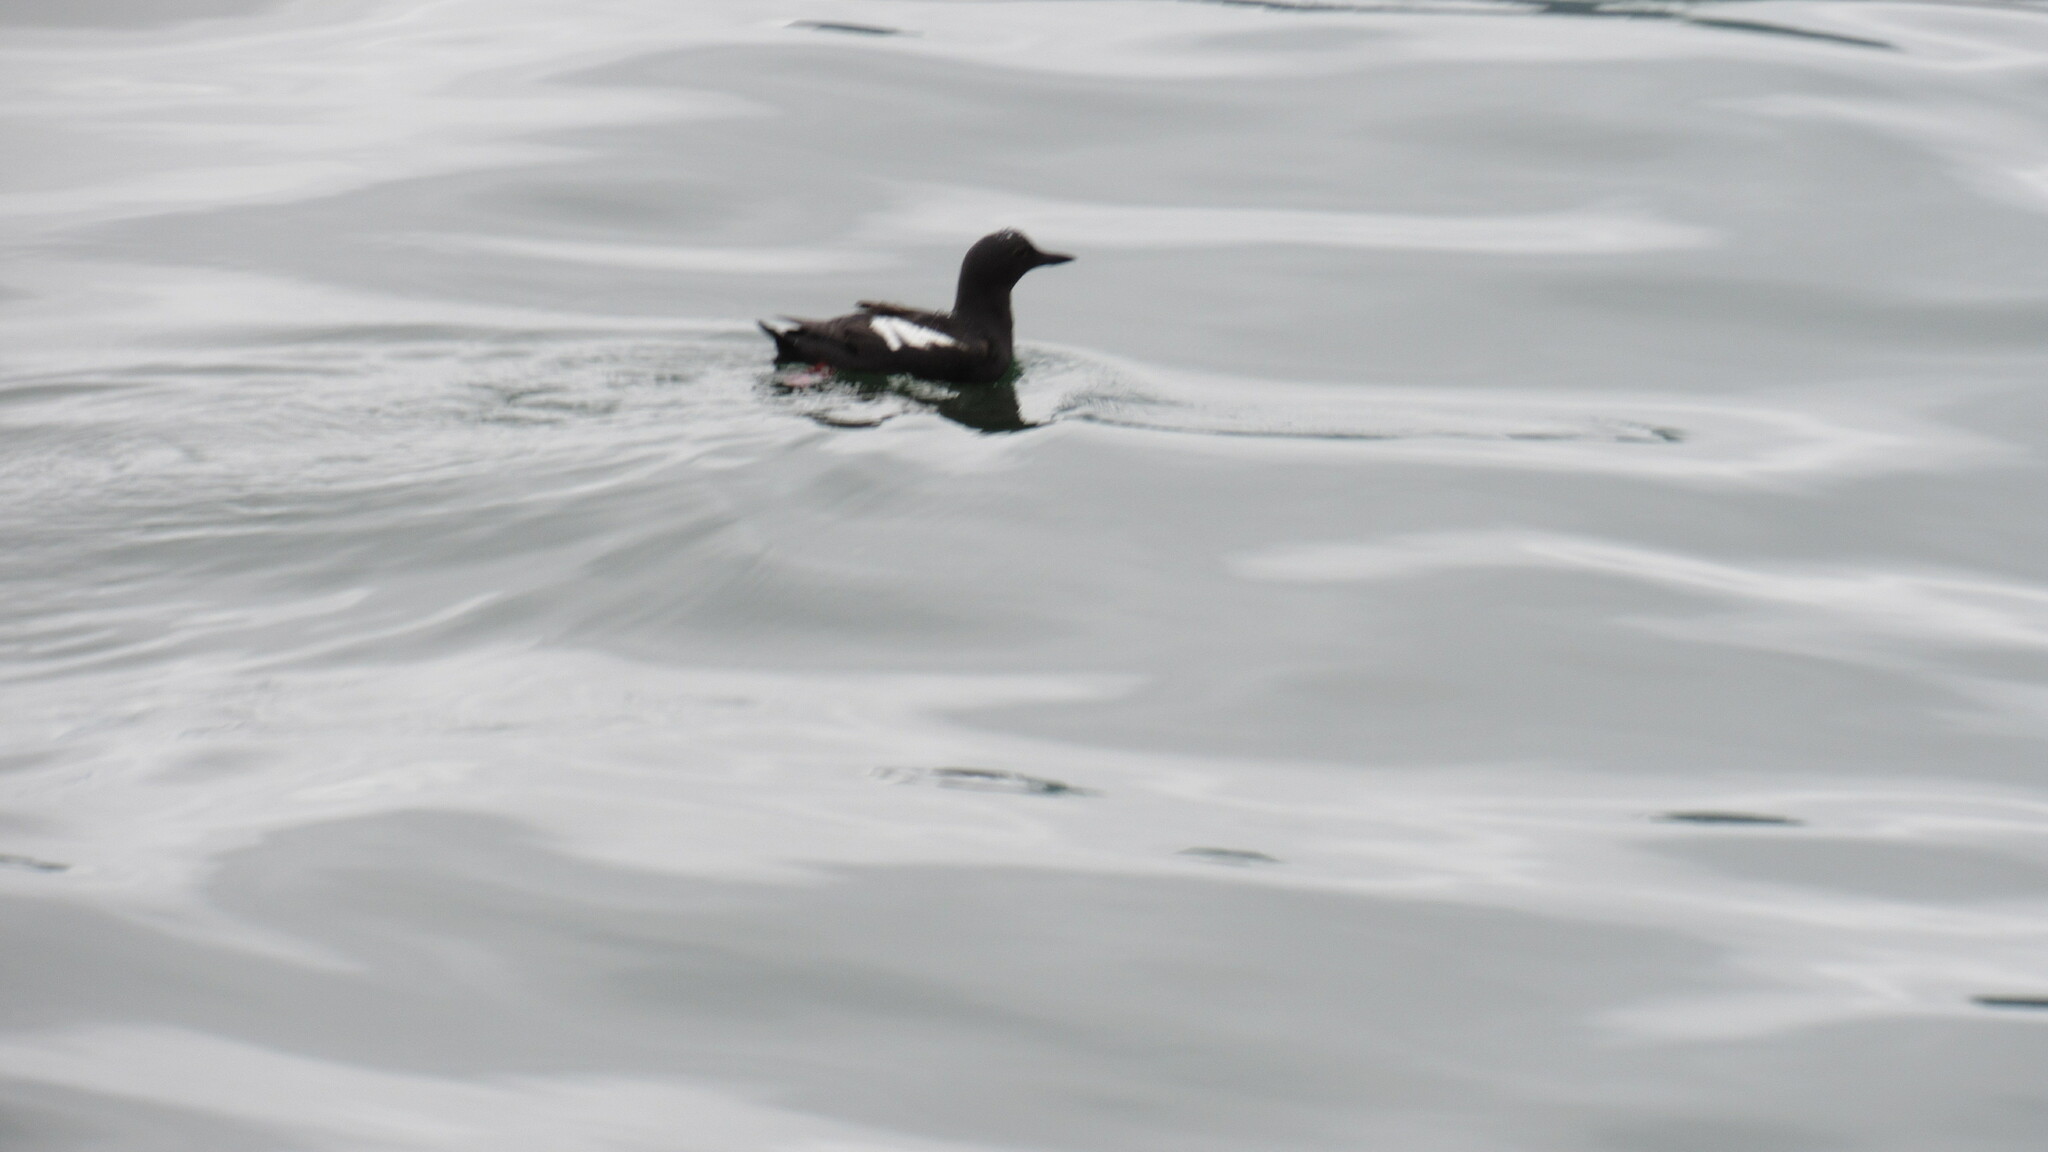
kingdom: Animalia
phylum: Chordata
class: Aves
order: Charadriiformes
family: Alcidae
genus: Cepphus
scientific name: Cepphus columba
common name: Pigeon guillemot
